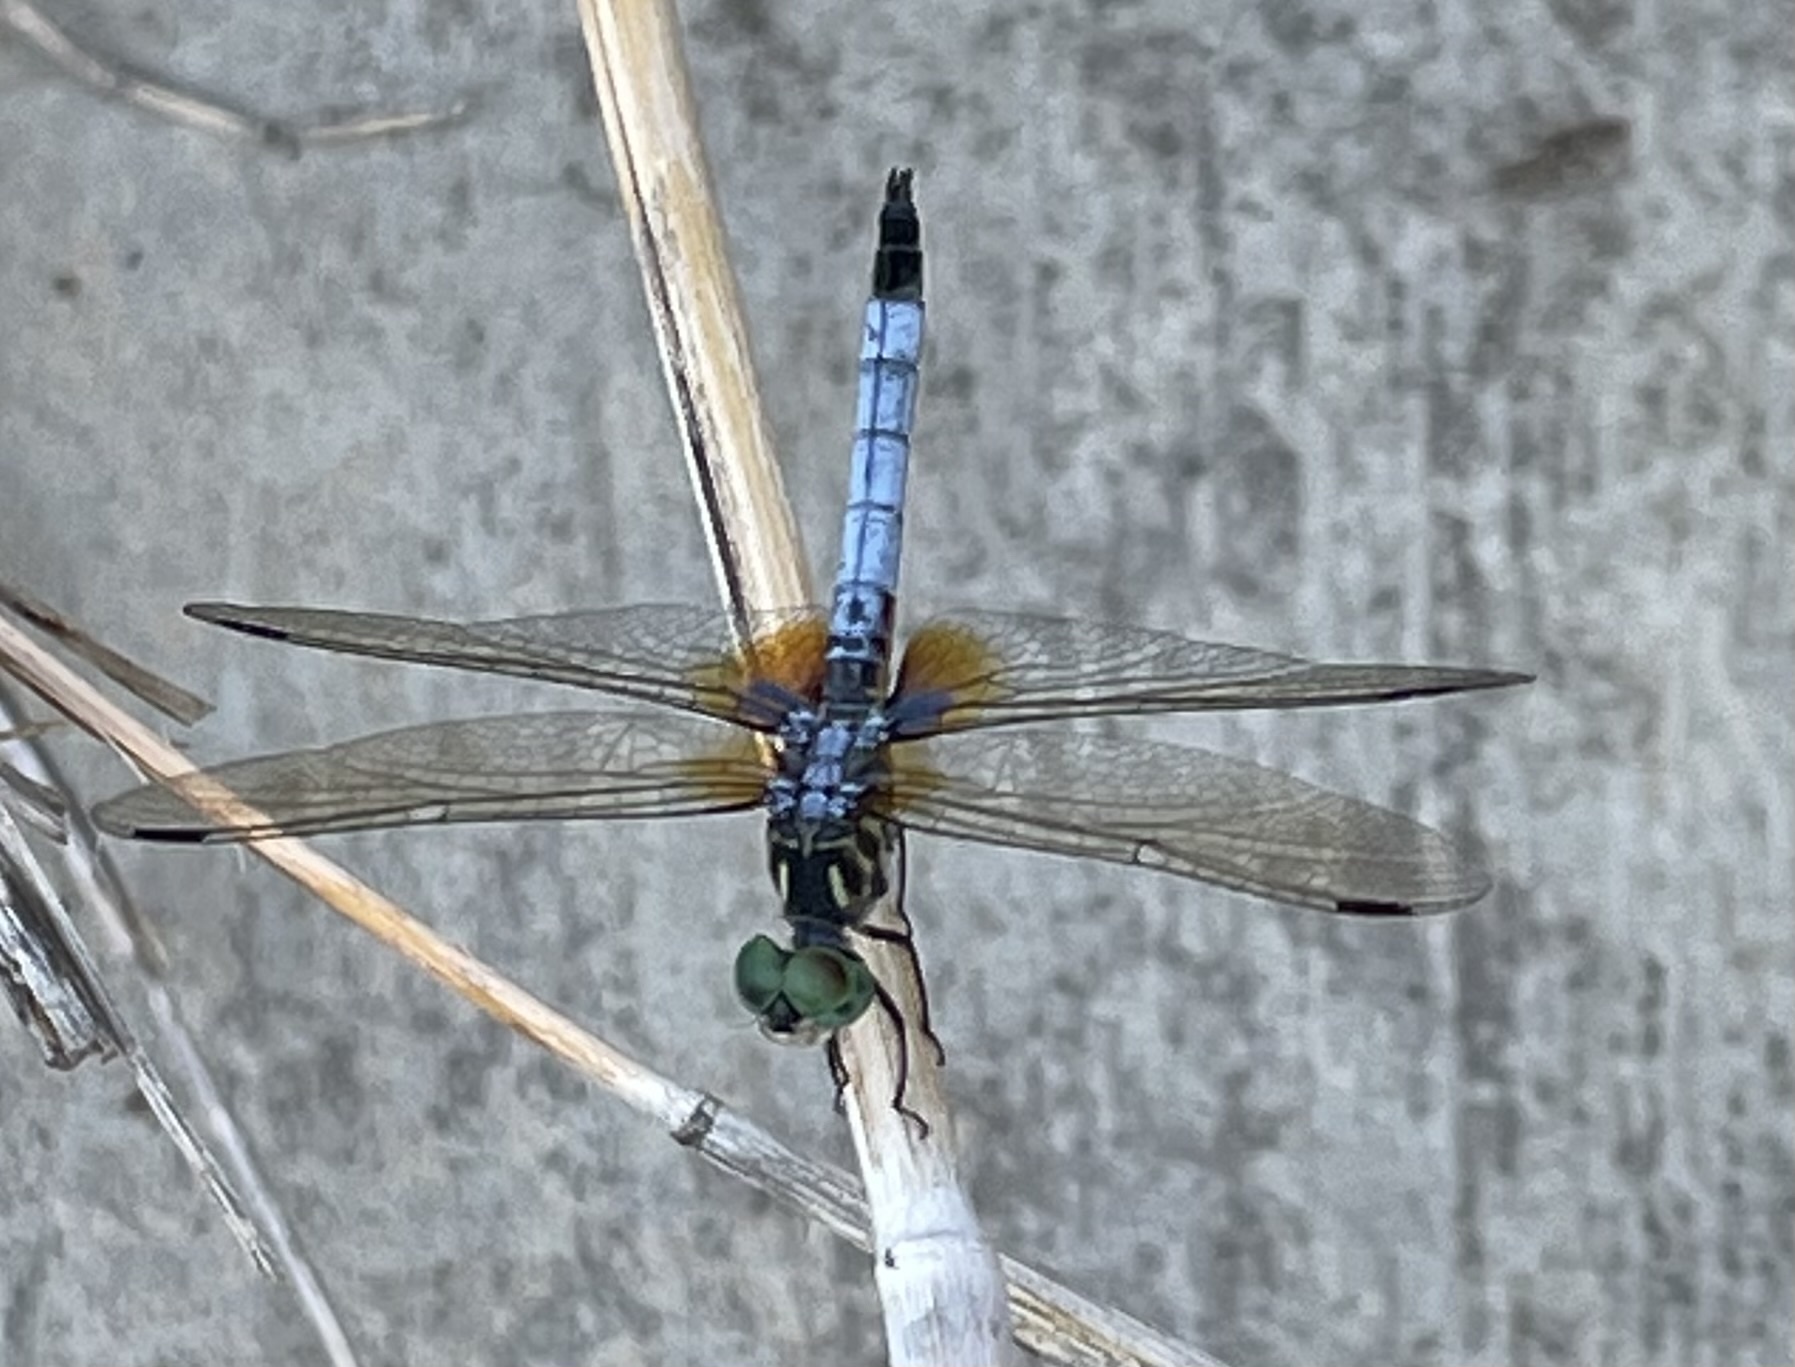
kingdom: Animalia
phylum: Arthropoda
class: Insecta
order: Odonata
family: Libellulidae
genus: Pachydiplax
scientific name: Pachydiplax longipennis
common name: Blue dasher
